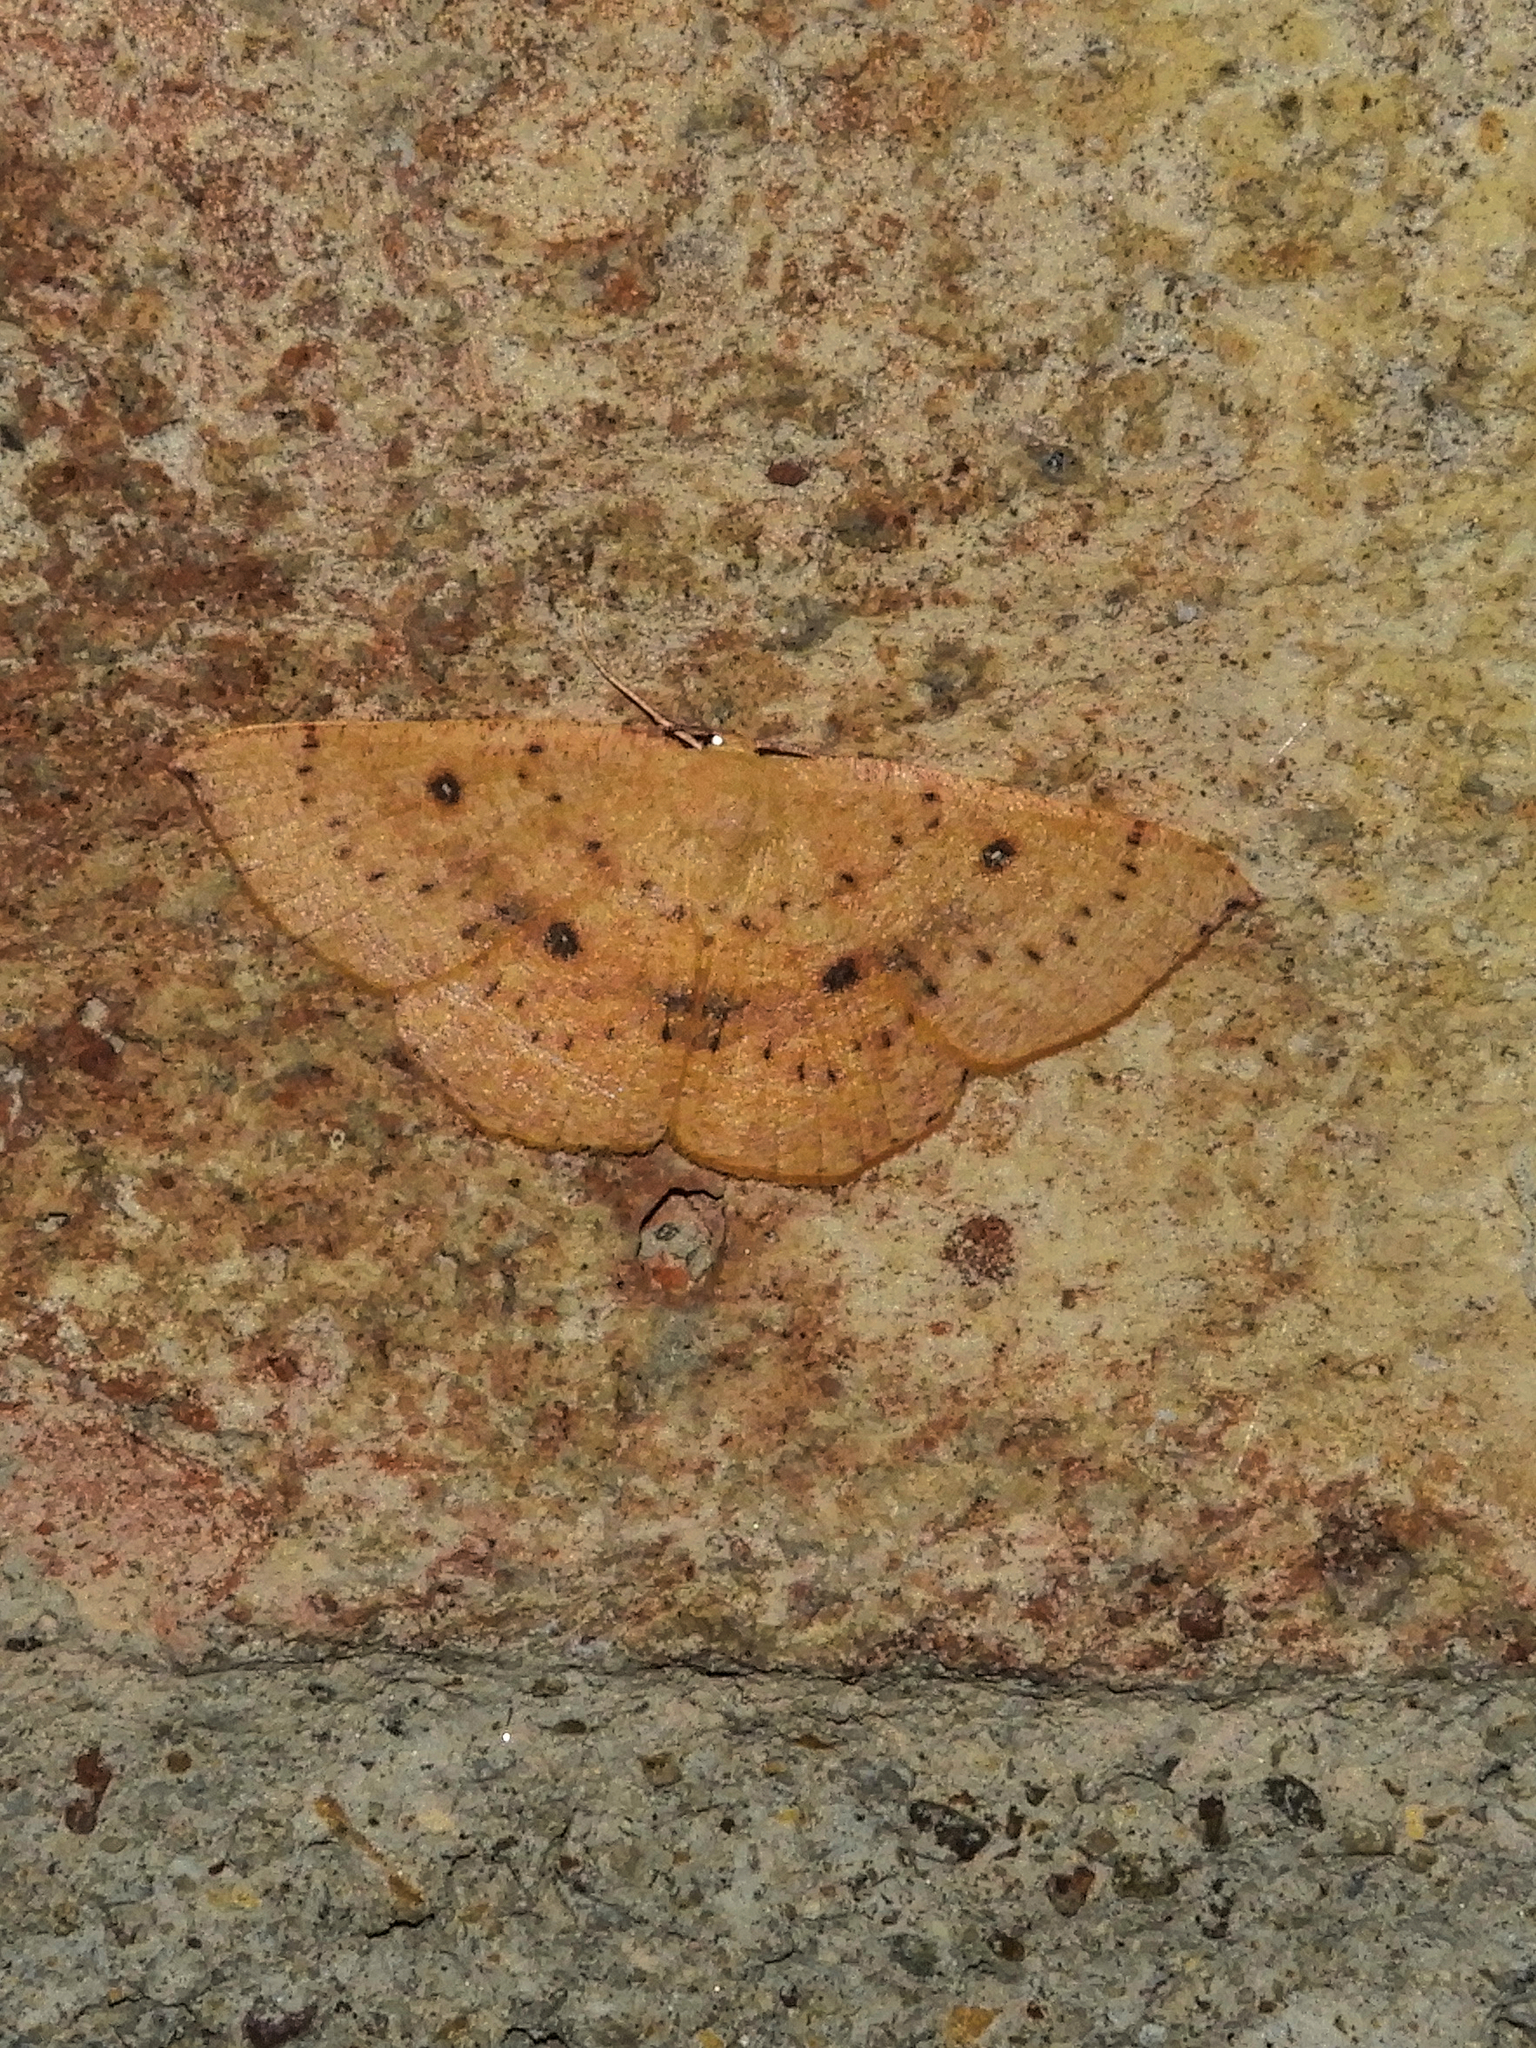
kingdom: Animalia
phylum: Arthropoda
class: Insecta
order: Lepidoptera
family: Geometridae
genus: Cyclophora
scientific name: Cyclophora puppillaria
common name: Blair's mocha
